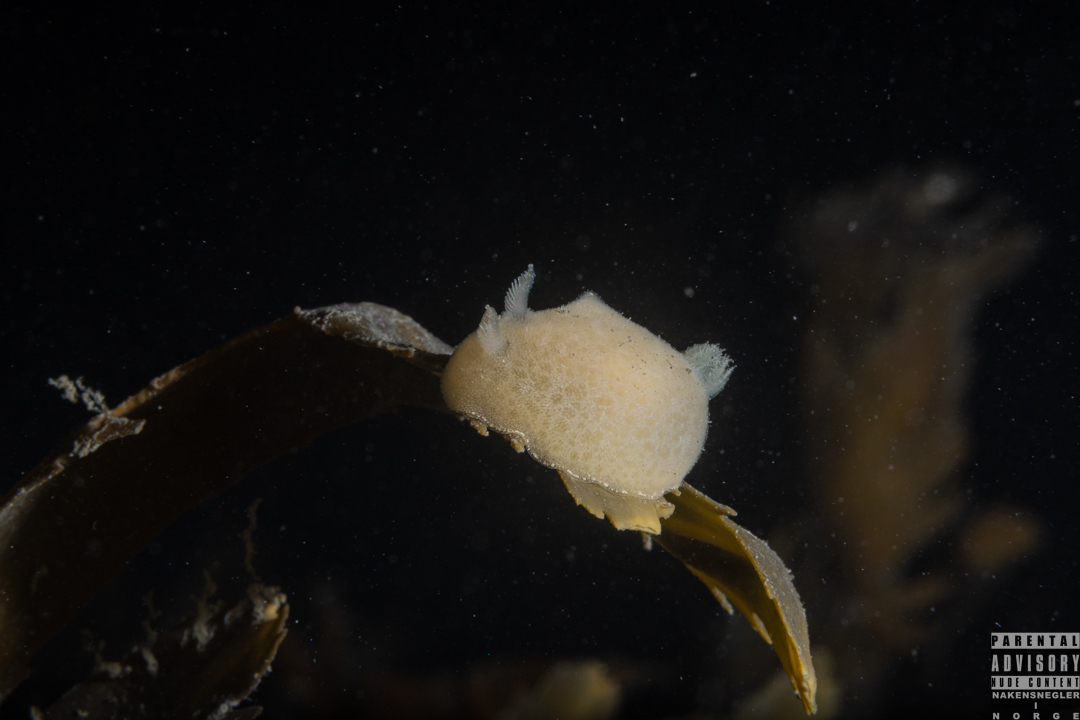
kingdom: Animalia
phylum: Mollusca
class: Gastropoda
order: Nudibranchia
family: Discodorididae
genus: Jorunna
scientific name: Jorunna tomentosa
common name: Grey sea slug
